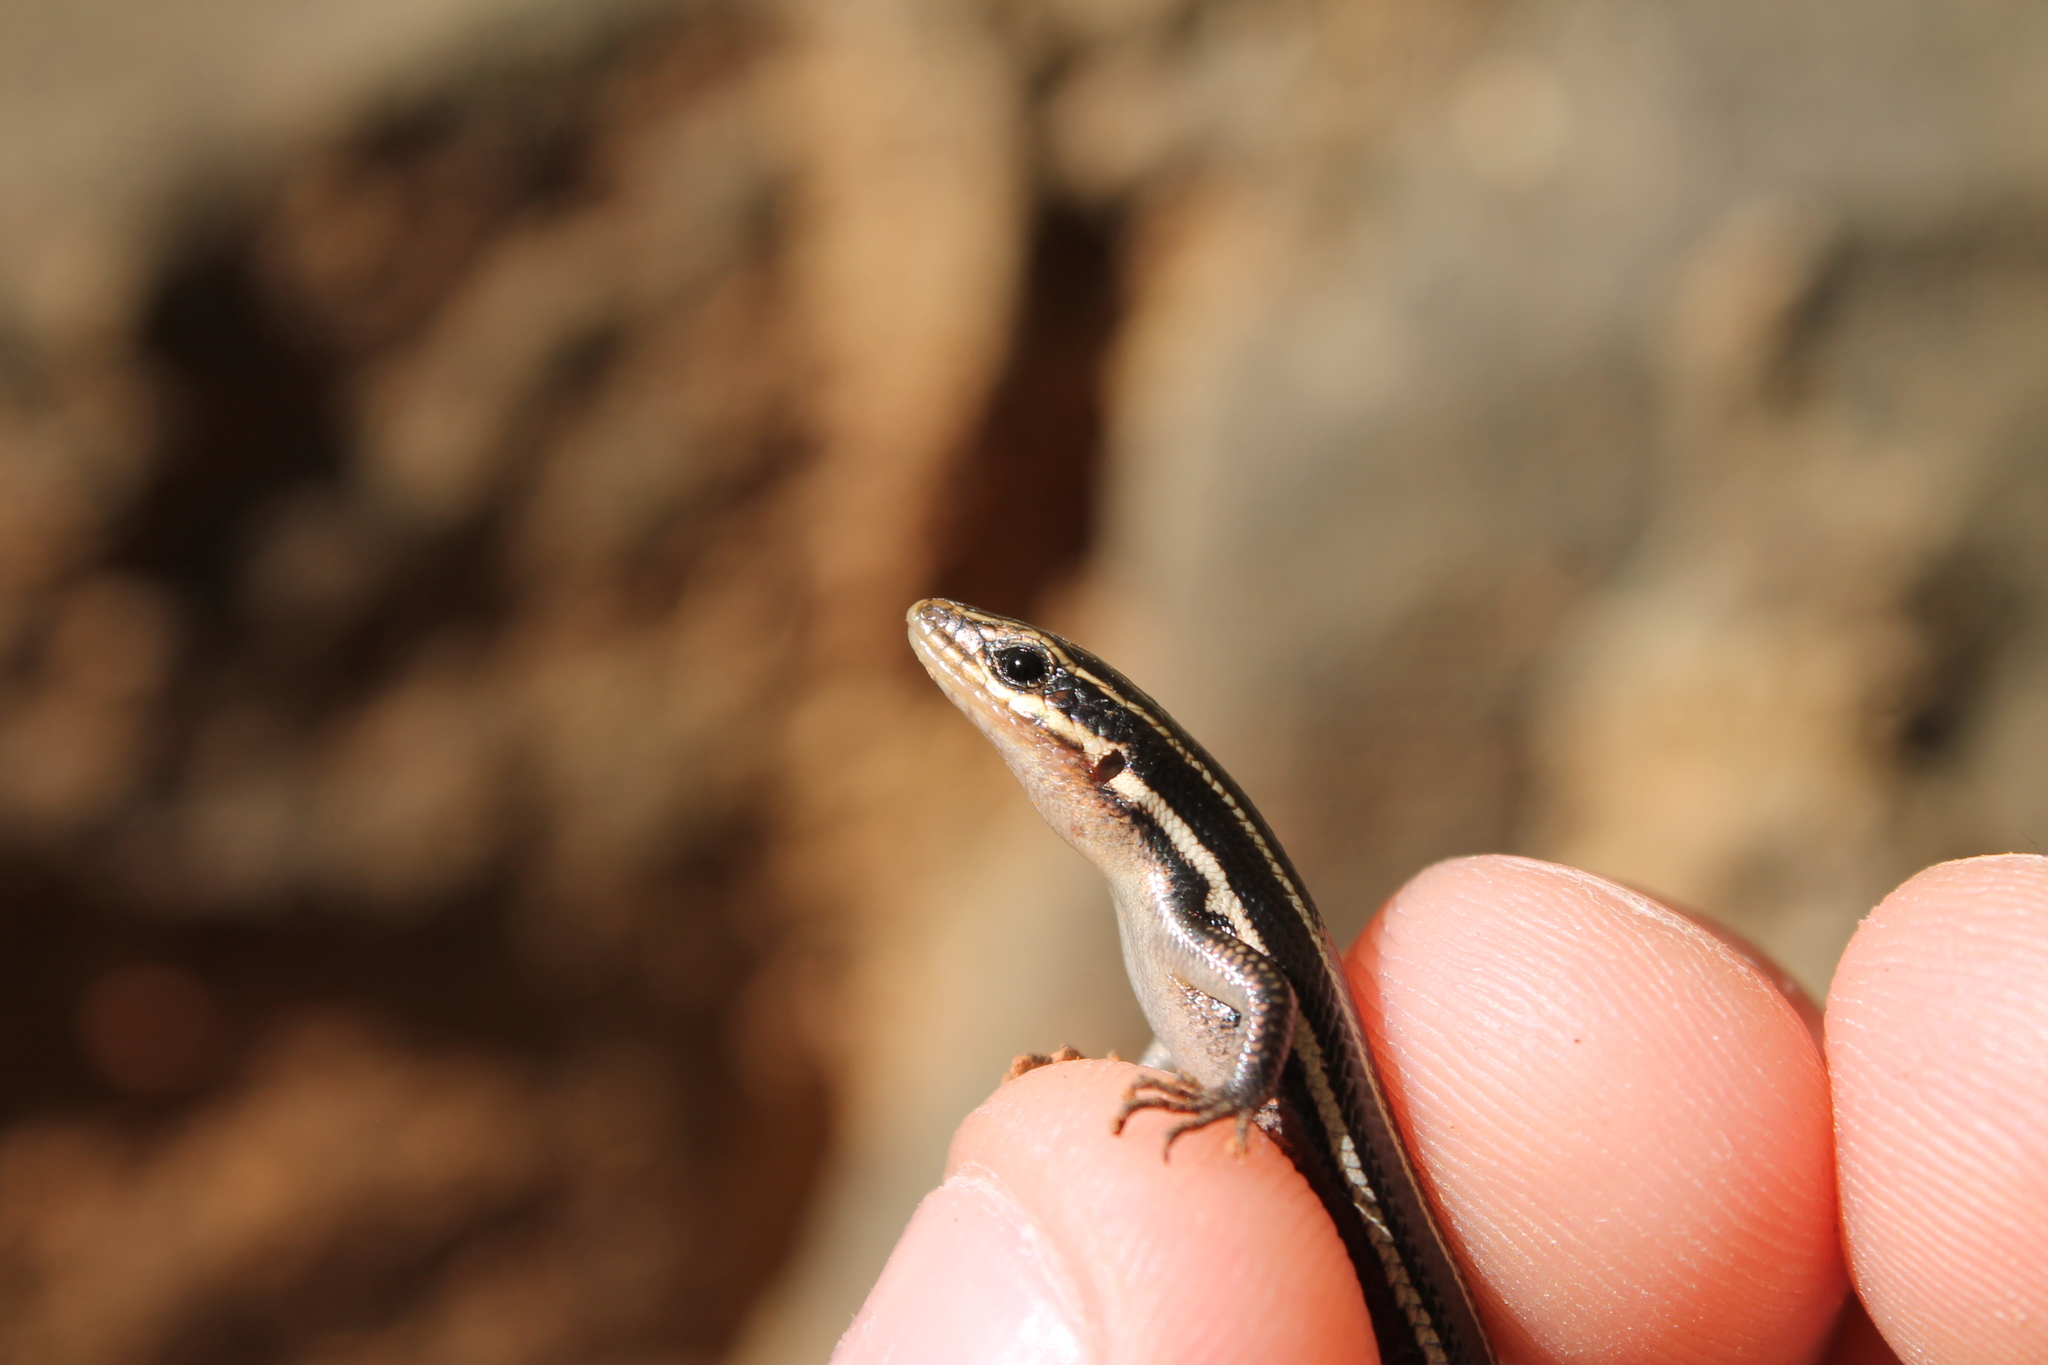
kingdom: Animalia
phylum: Chordata
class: Squamata
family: Scincidae
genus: Plestiodon
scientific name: Plestiodon fasciatus
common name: Five-lined skink
